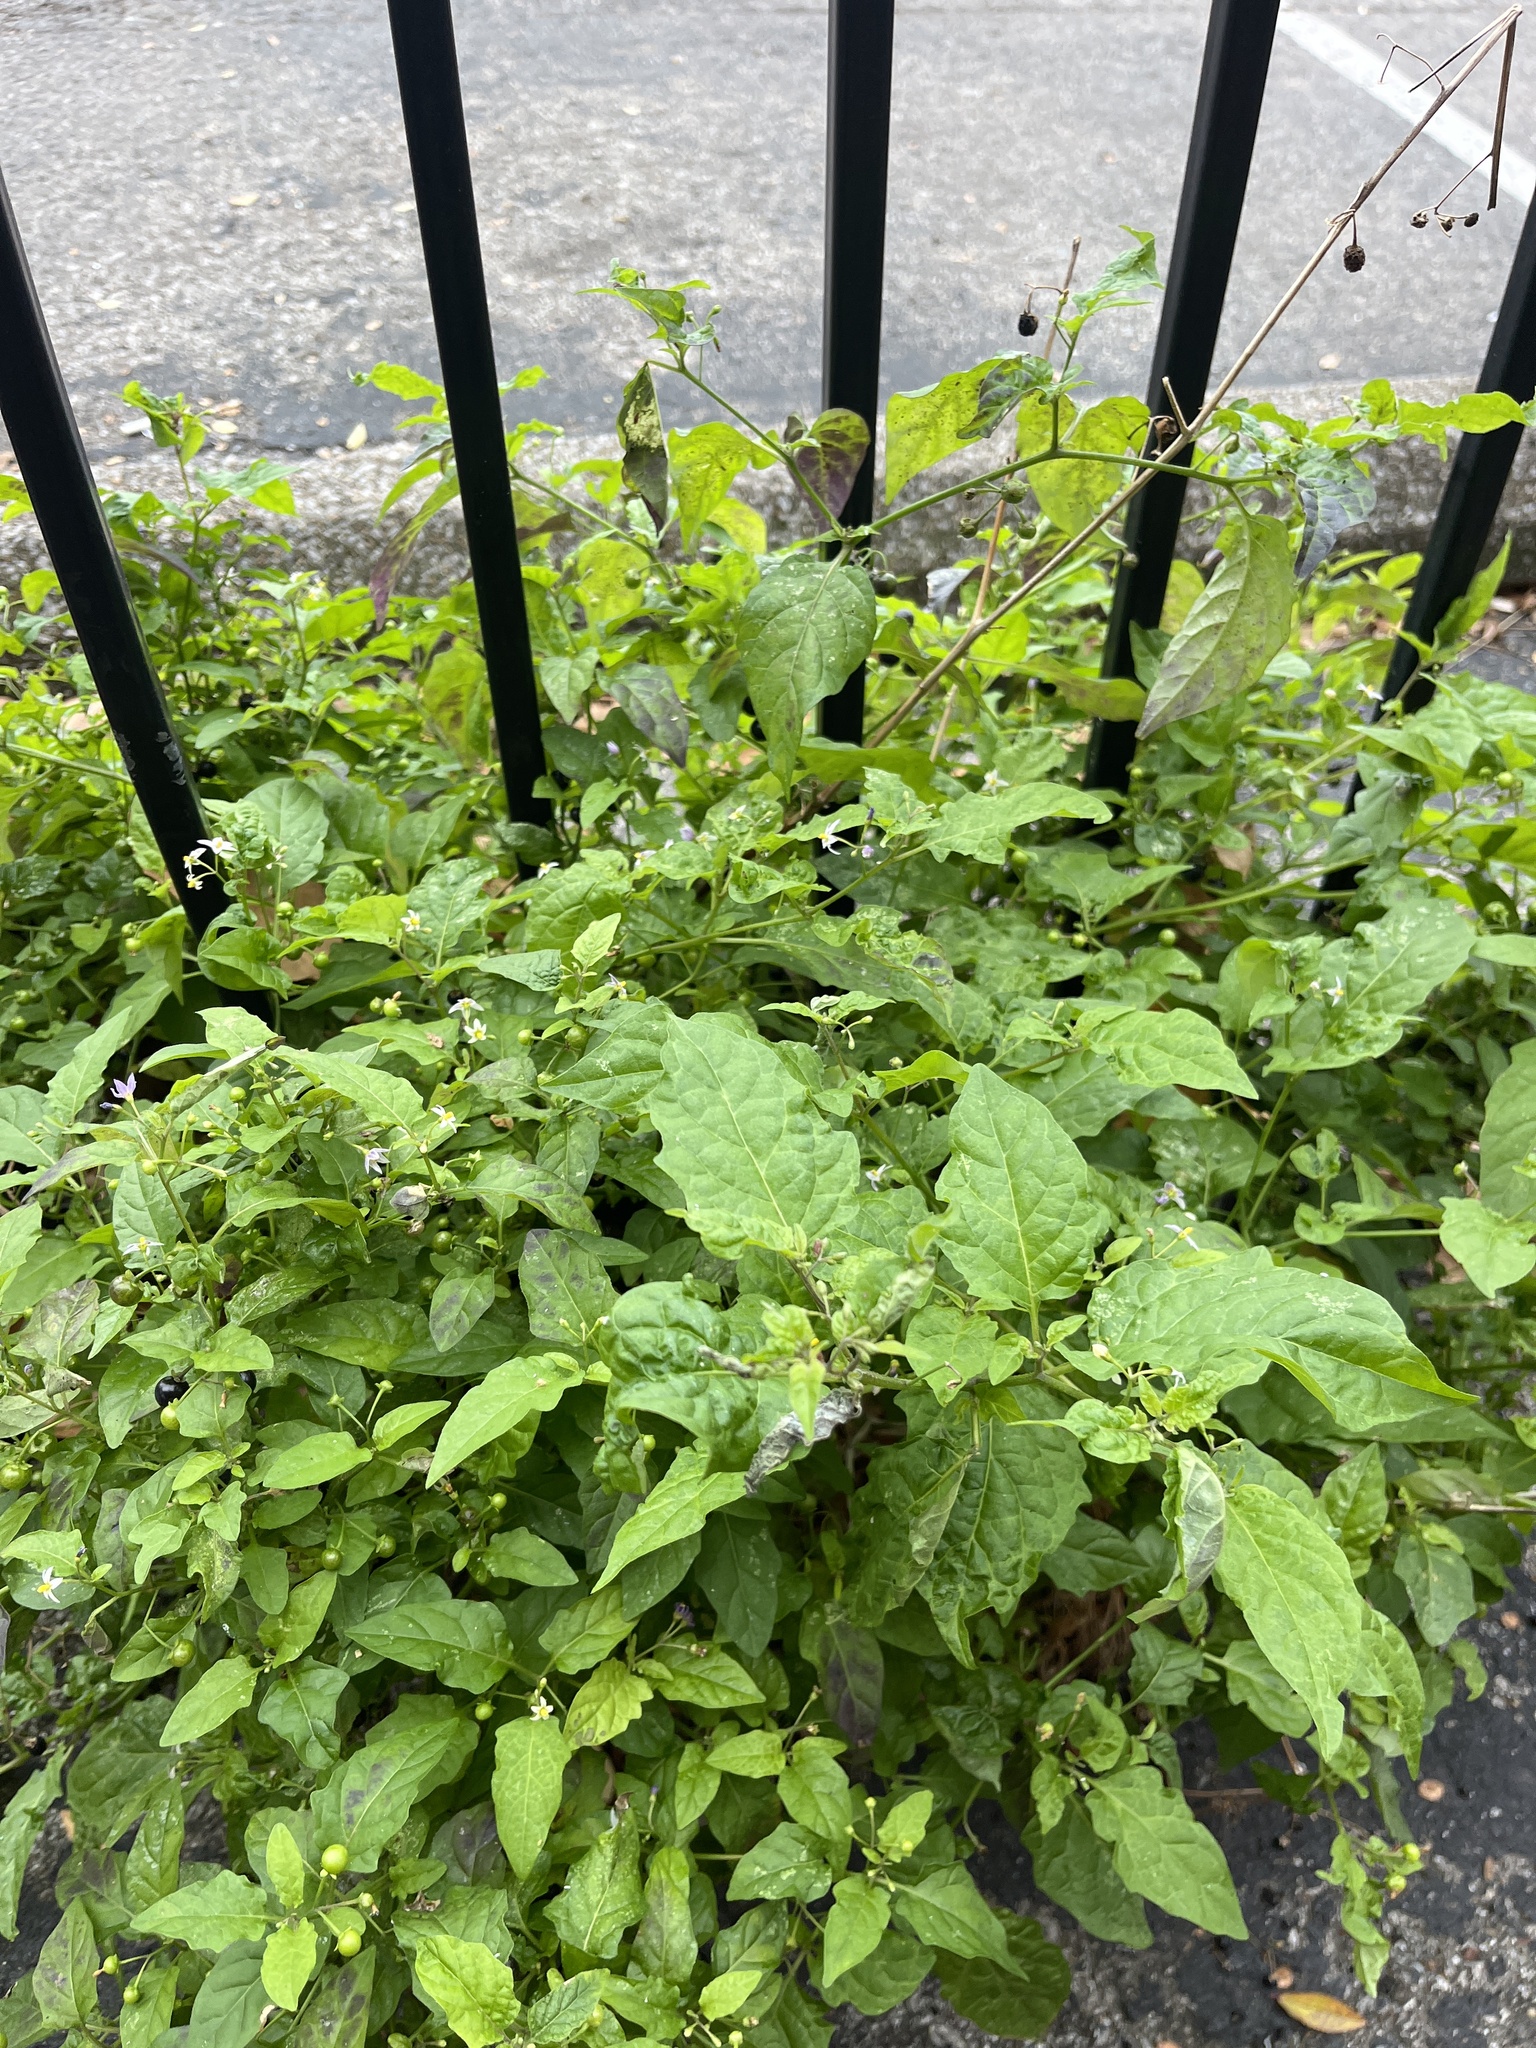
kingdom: Plantae
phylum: Tracheophyta
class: Magnoliopsida
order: Solanales
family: Solanaceae
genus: Solanum
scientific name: Solanum emulans
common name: Eastern black nightshade
